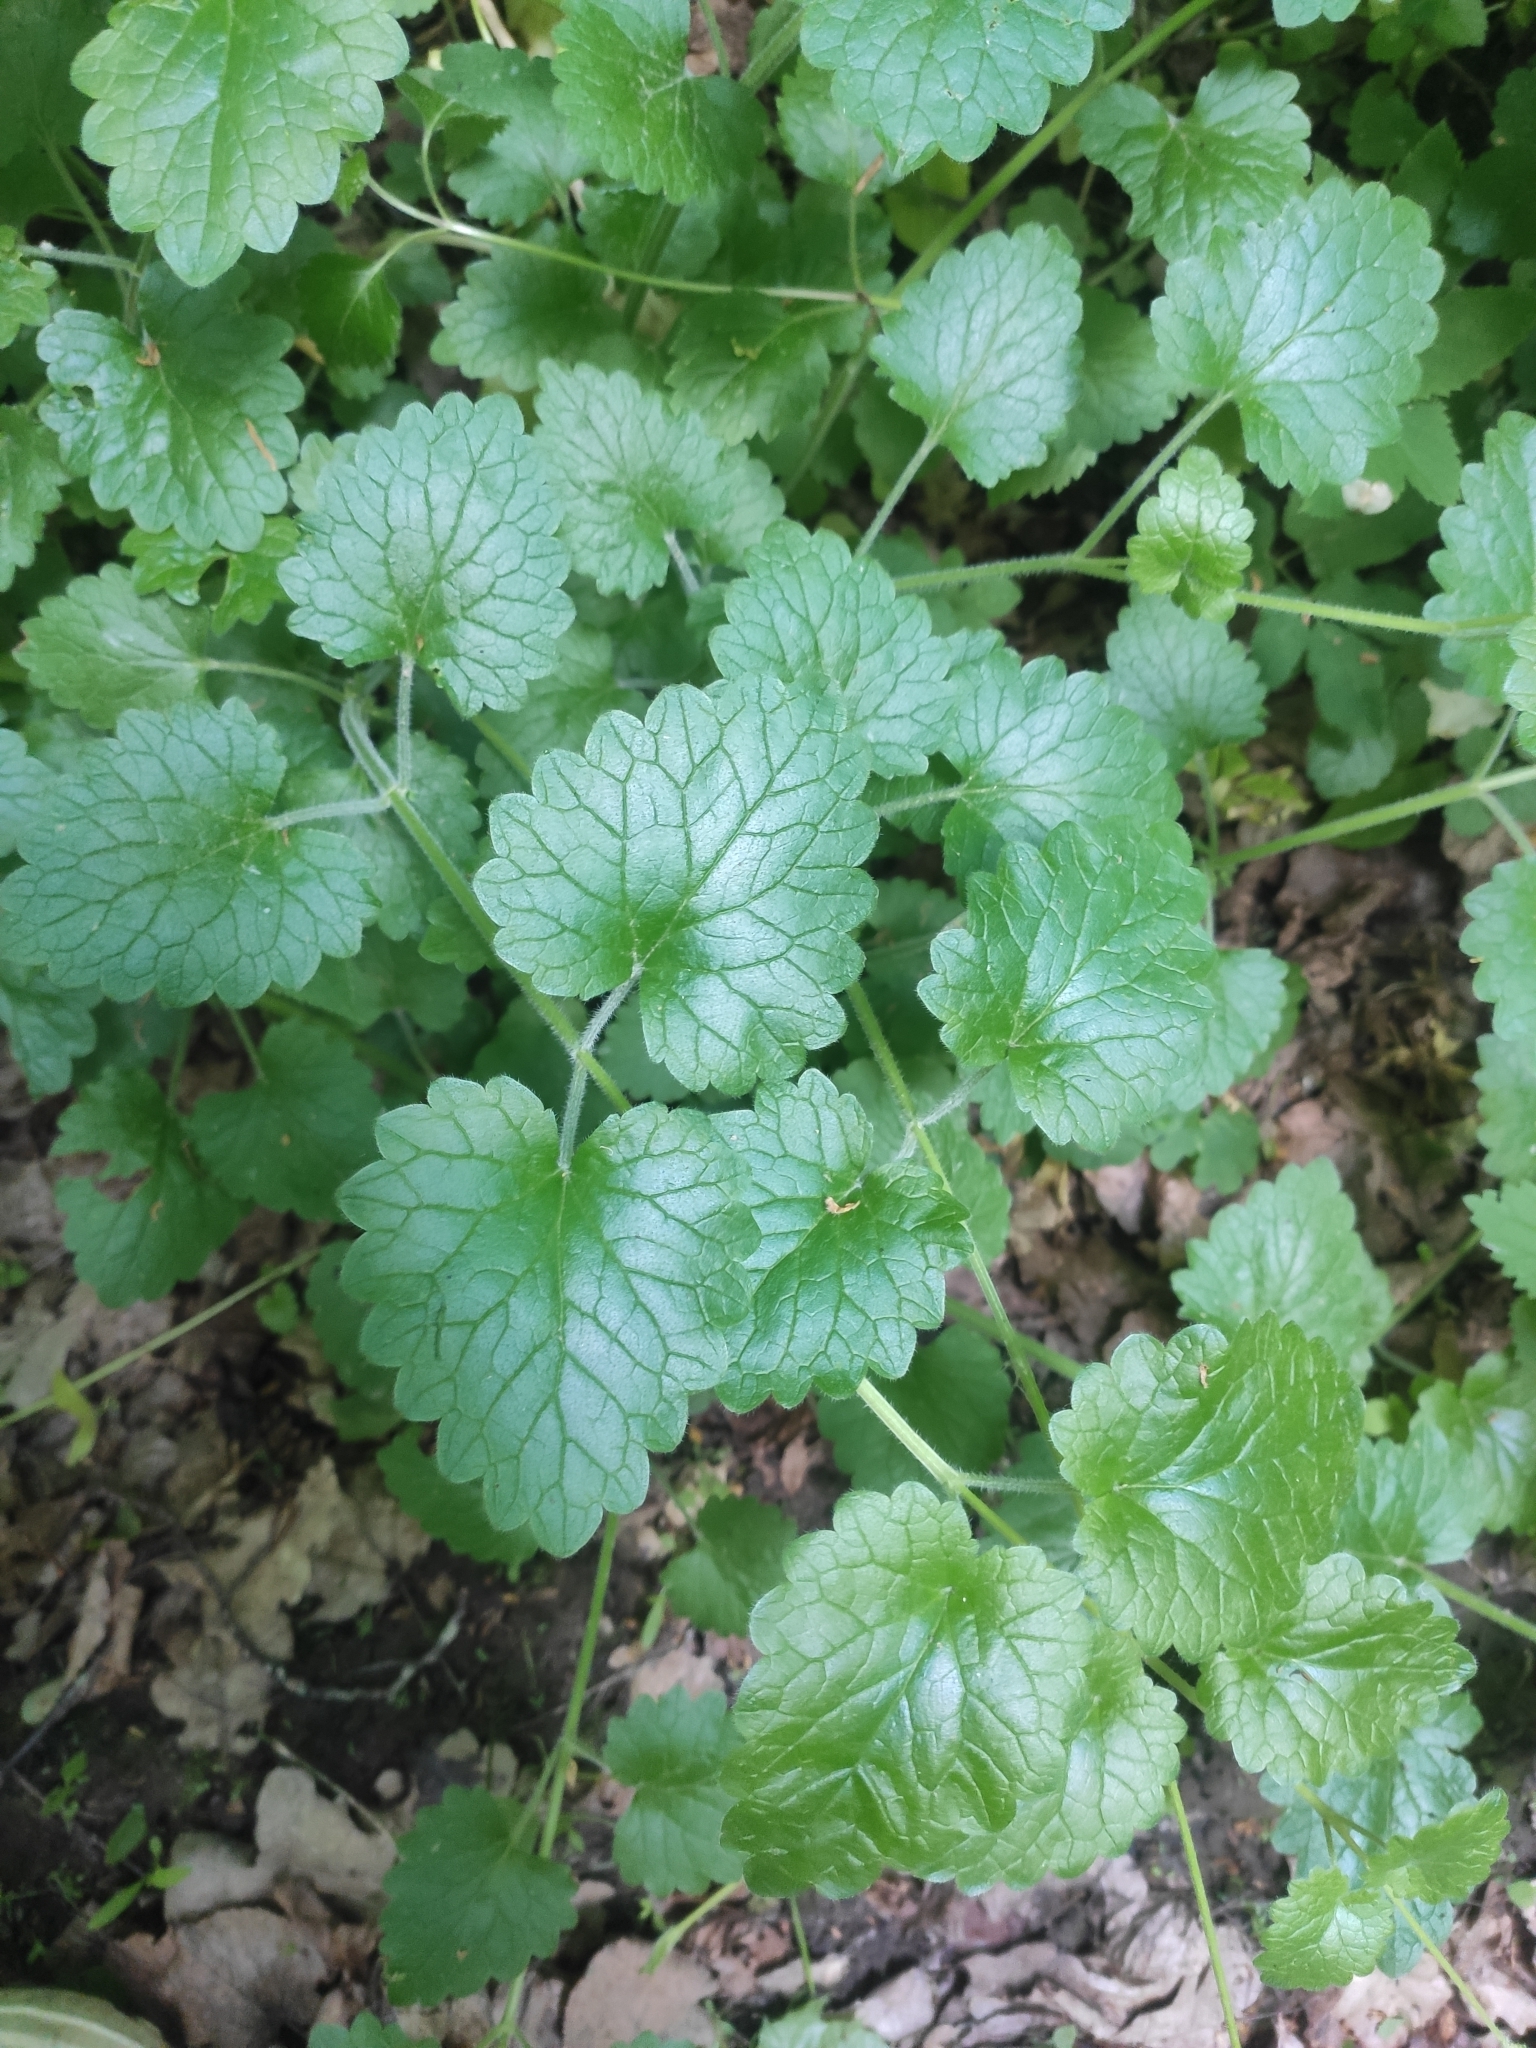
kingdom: Plantae
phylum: Tracheophyta
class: Magnoliopsida
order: Lamiales
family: Lamiaceae
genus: Glechoma
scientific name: Glechoma hederacea
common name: Ground ivy
